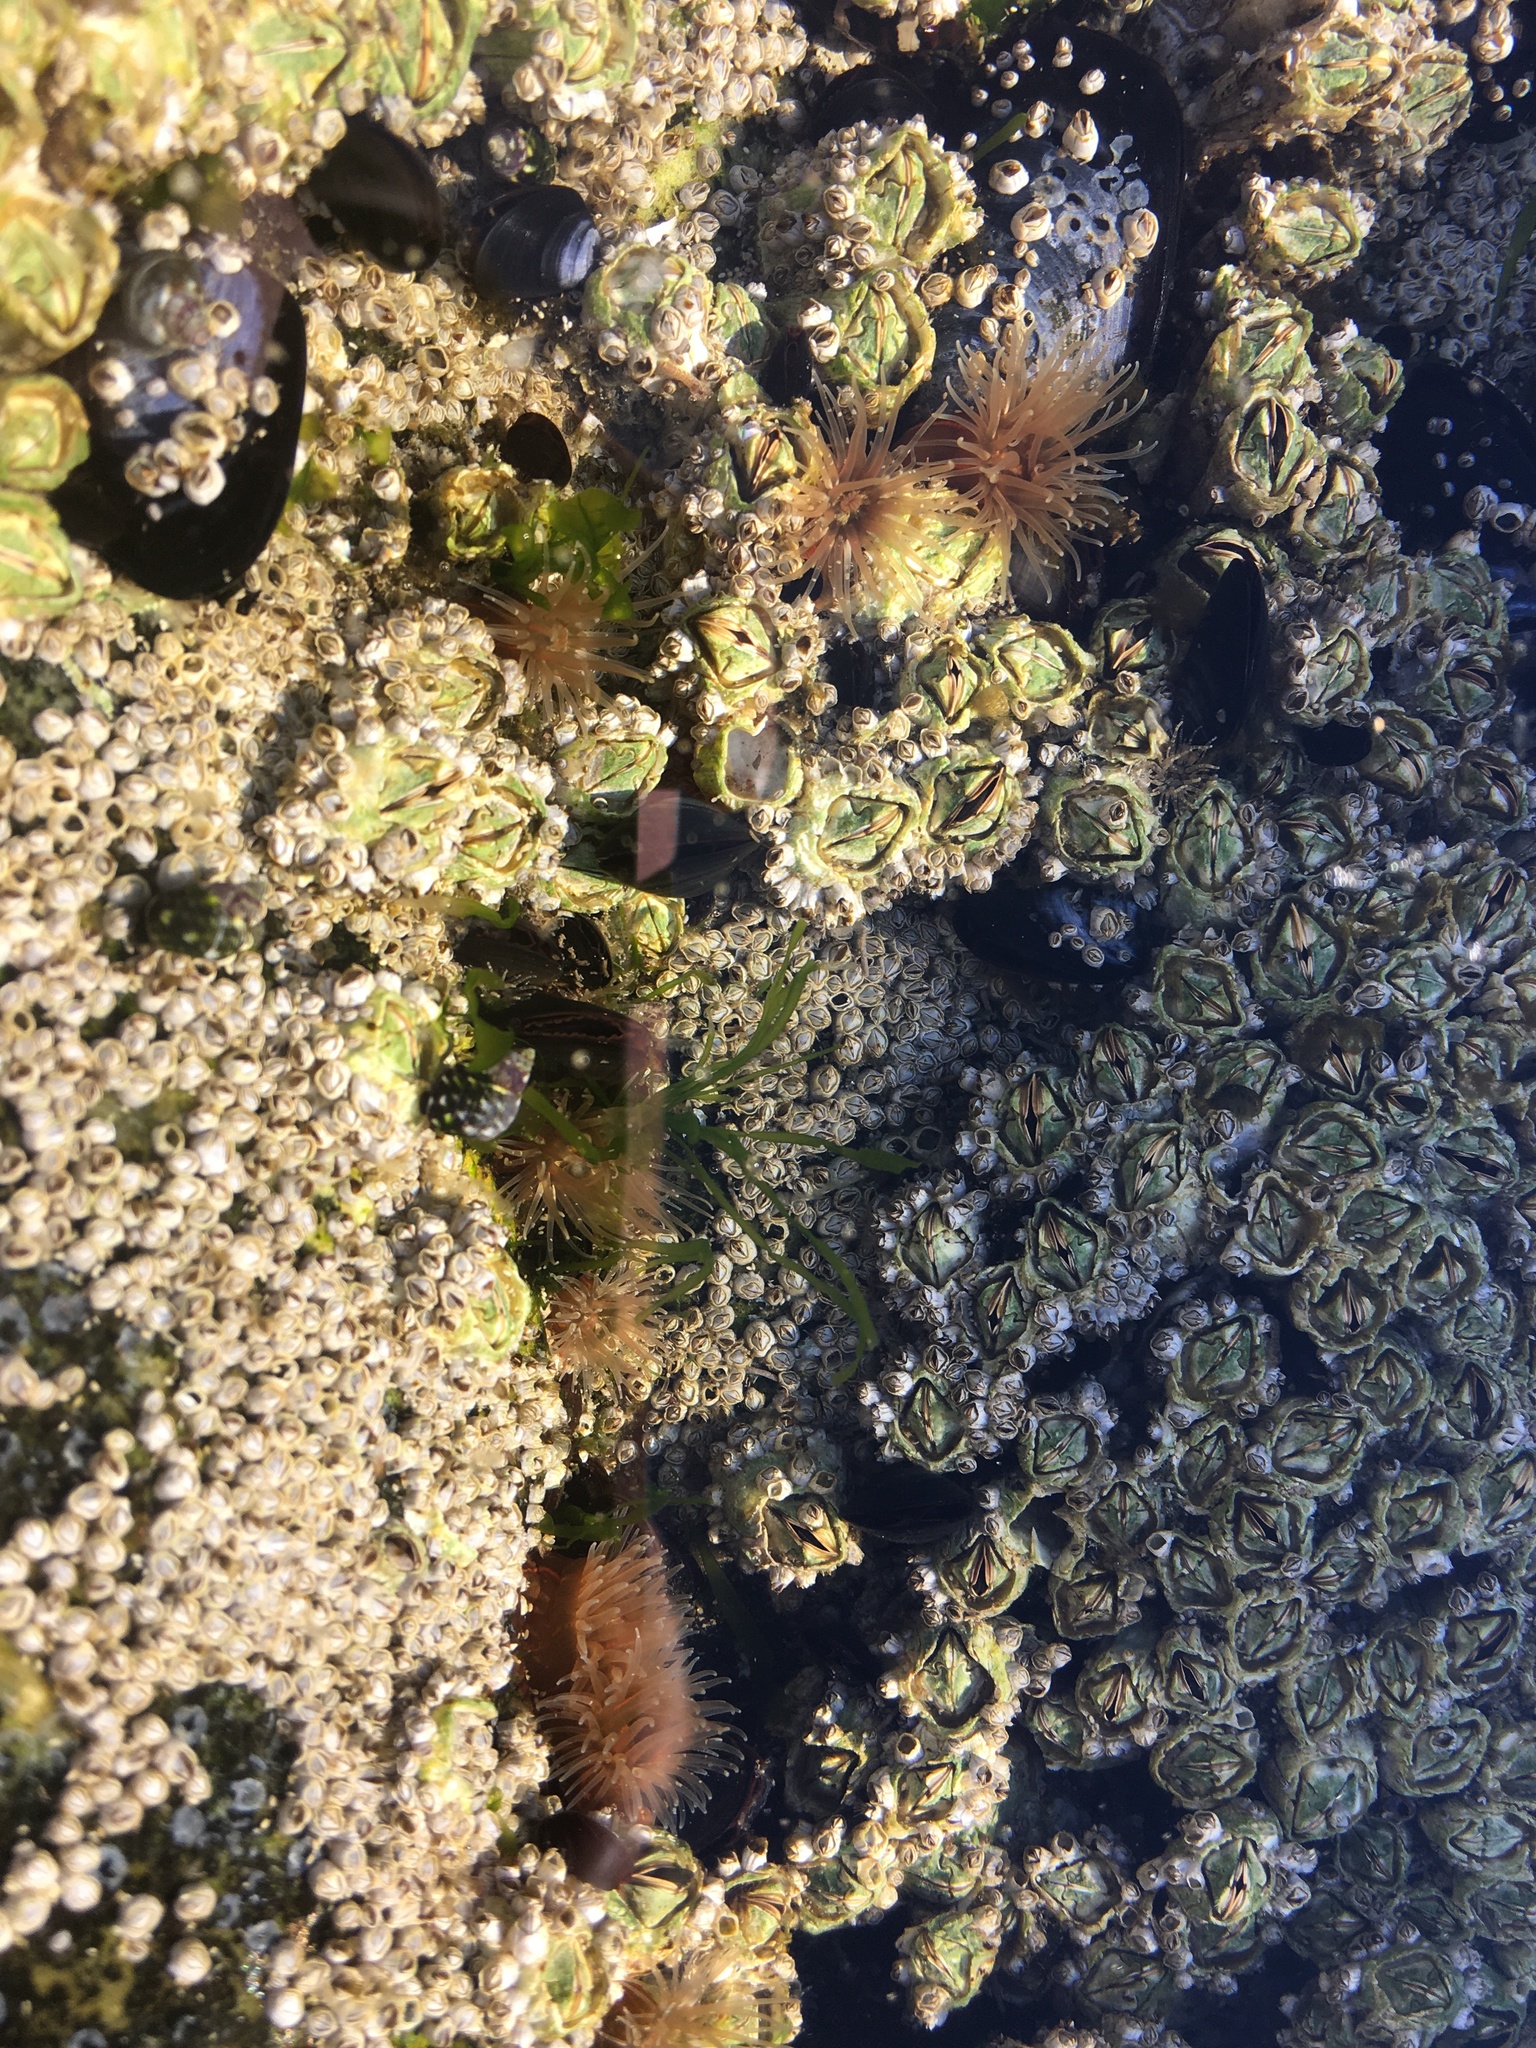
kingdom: Animalia
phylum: Cnidaria
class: Anthozoa
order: Actiniaria
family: Diadumenidae
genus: Diadumene
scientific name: Diadumene lineata
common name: Orange-striped anemone
